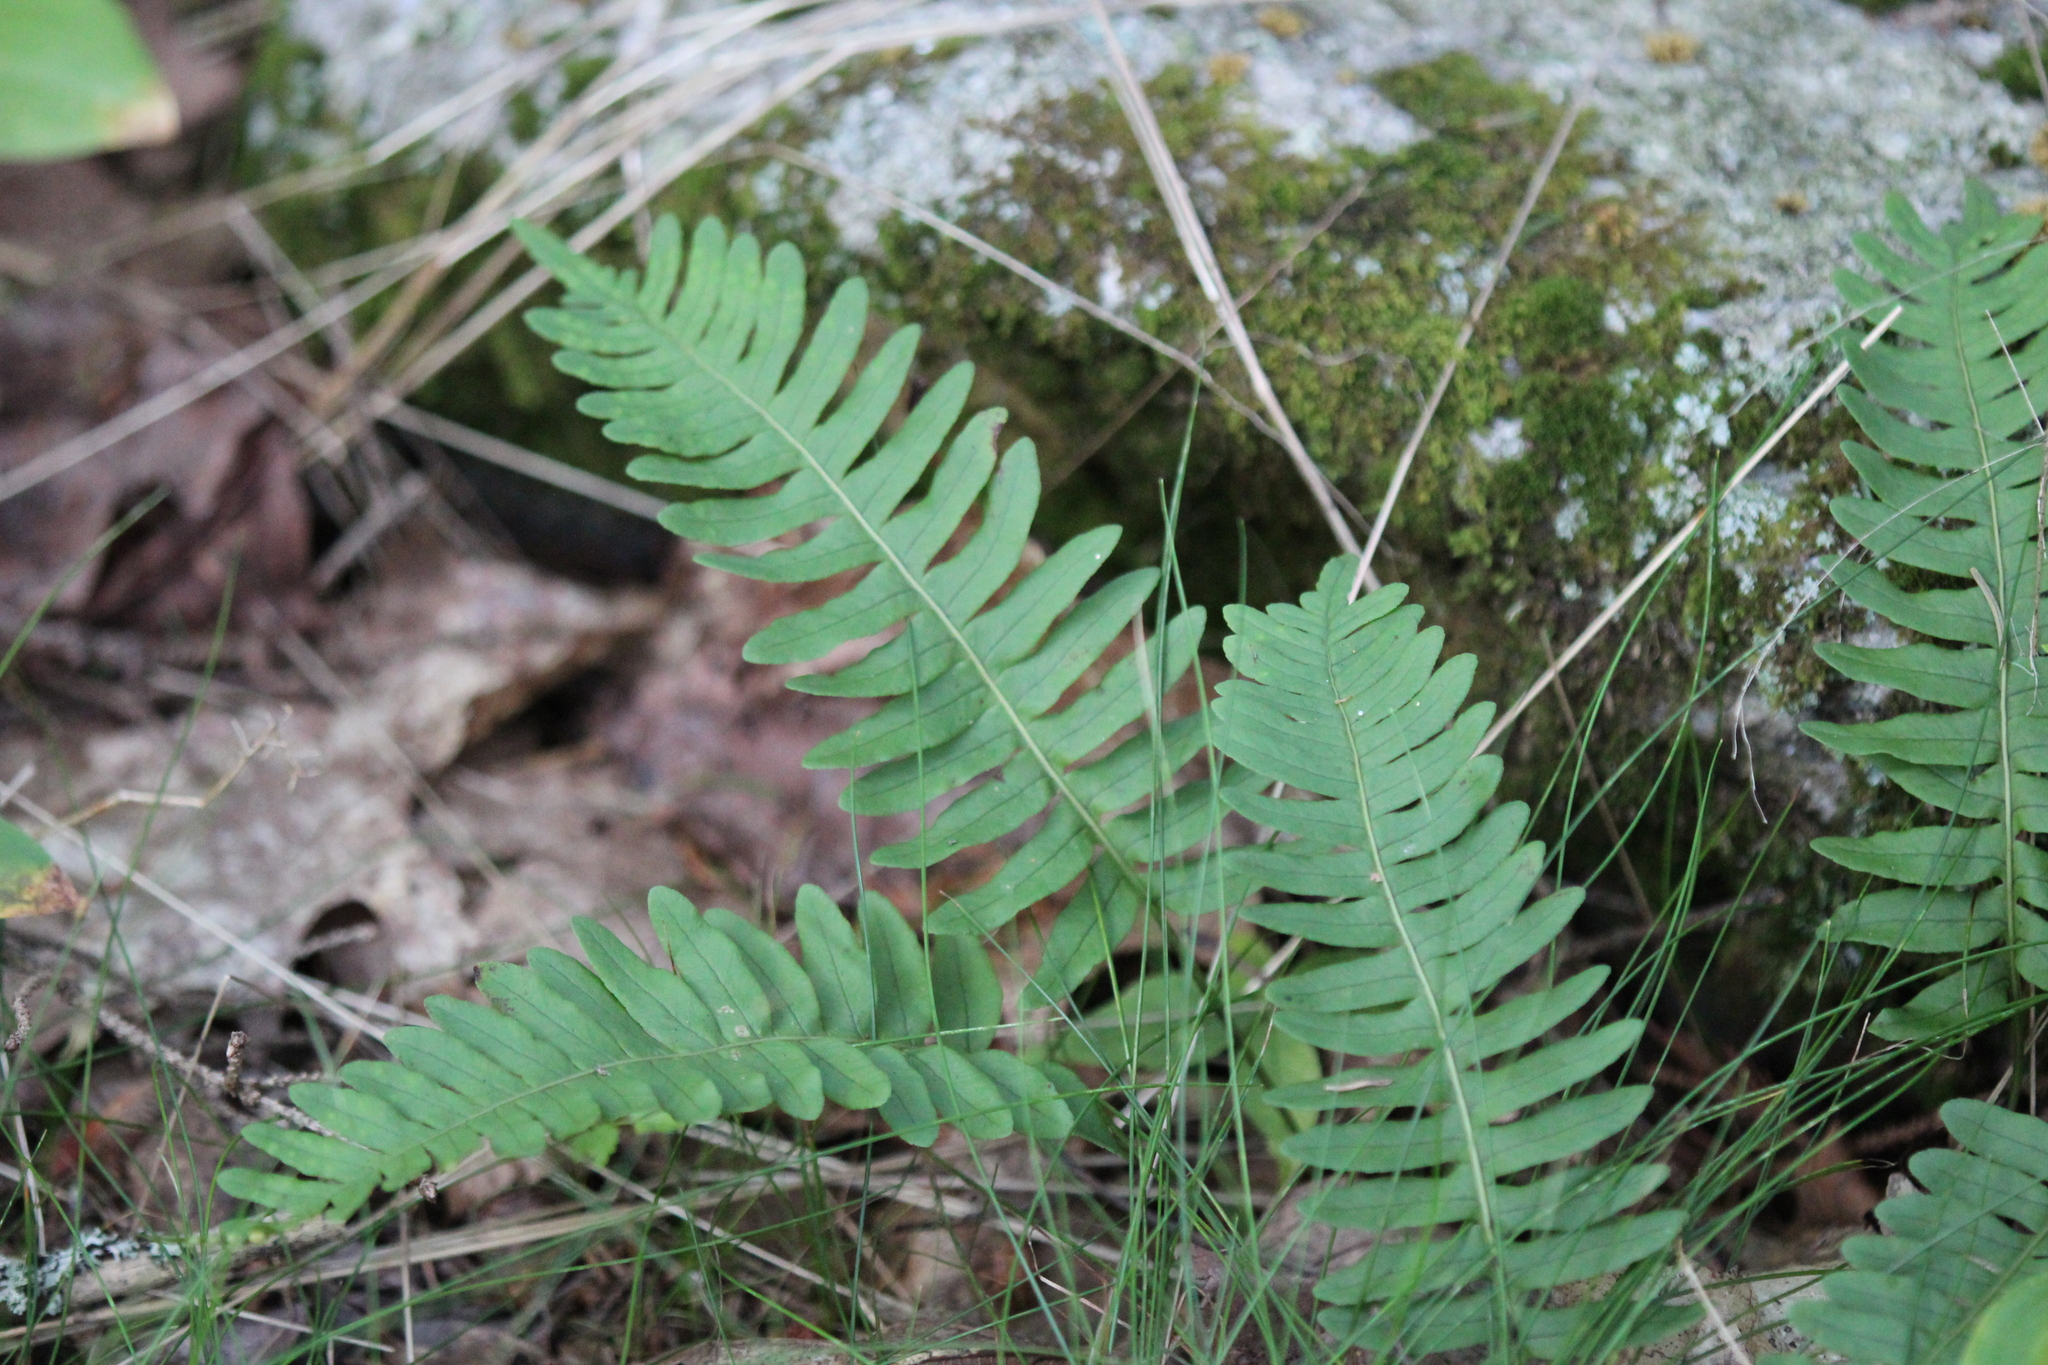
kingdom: Plantae
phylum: Tracheophyta
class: Polypodiopsida
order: Polypodiales
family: Polypodiaceae
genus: Polypodium
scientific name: Polypodium virginianum
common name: American wall fern
